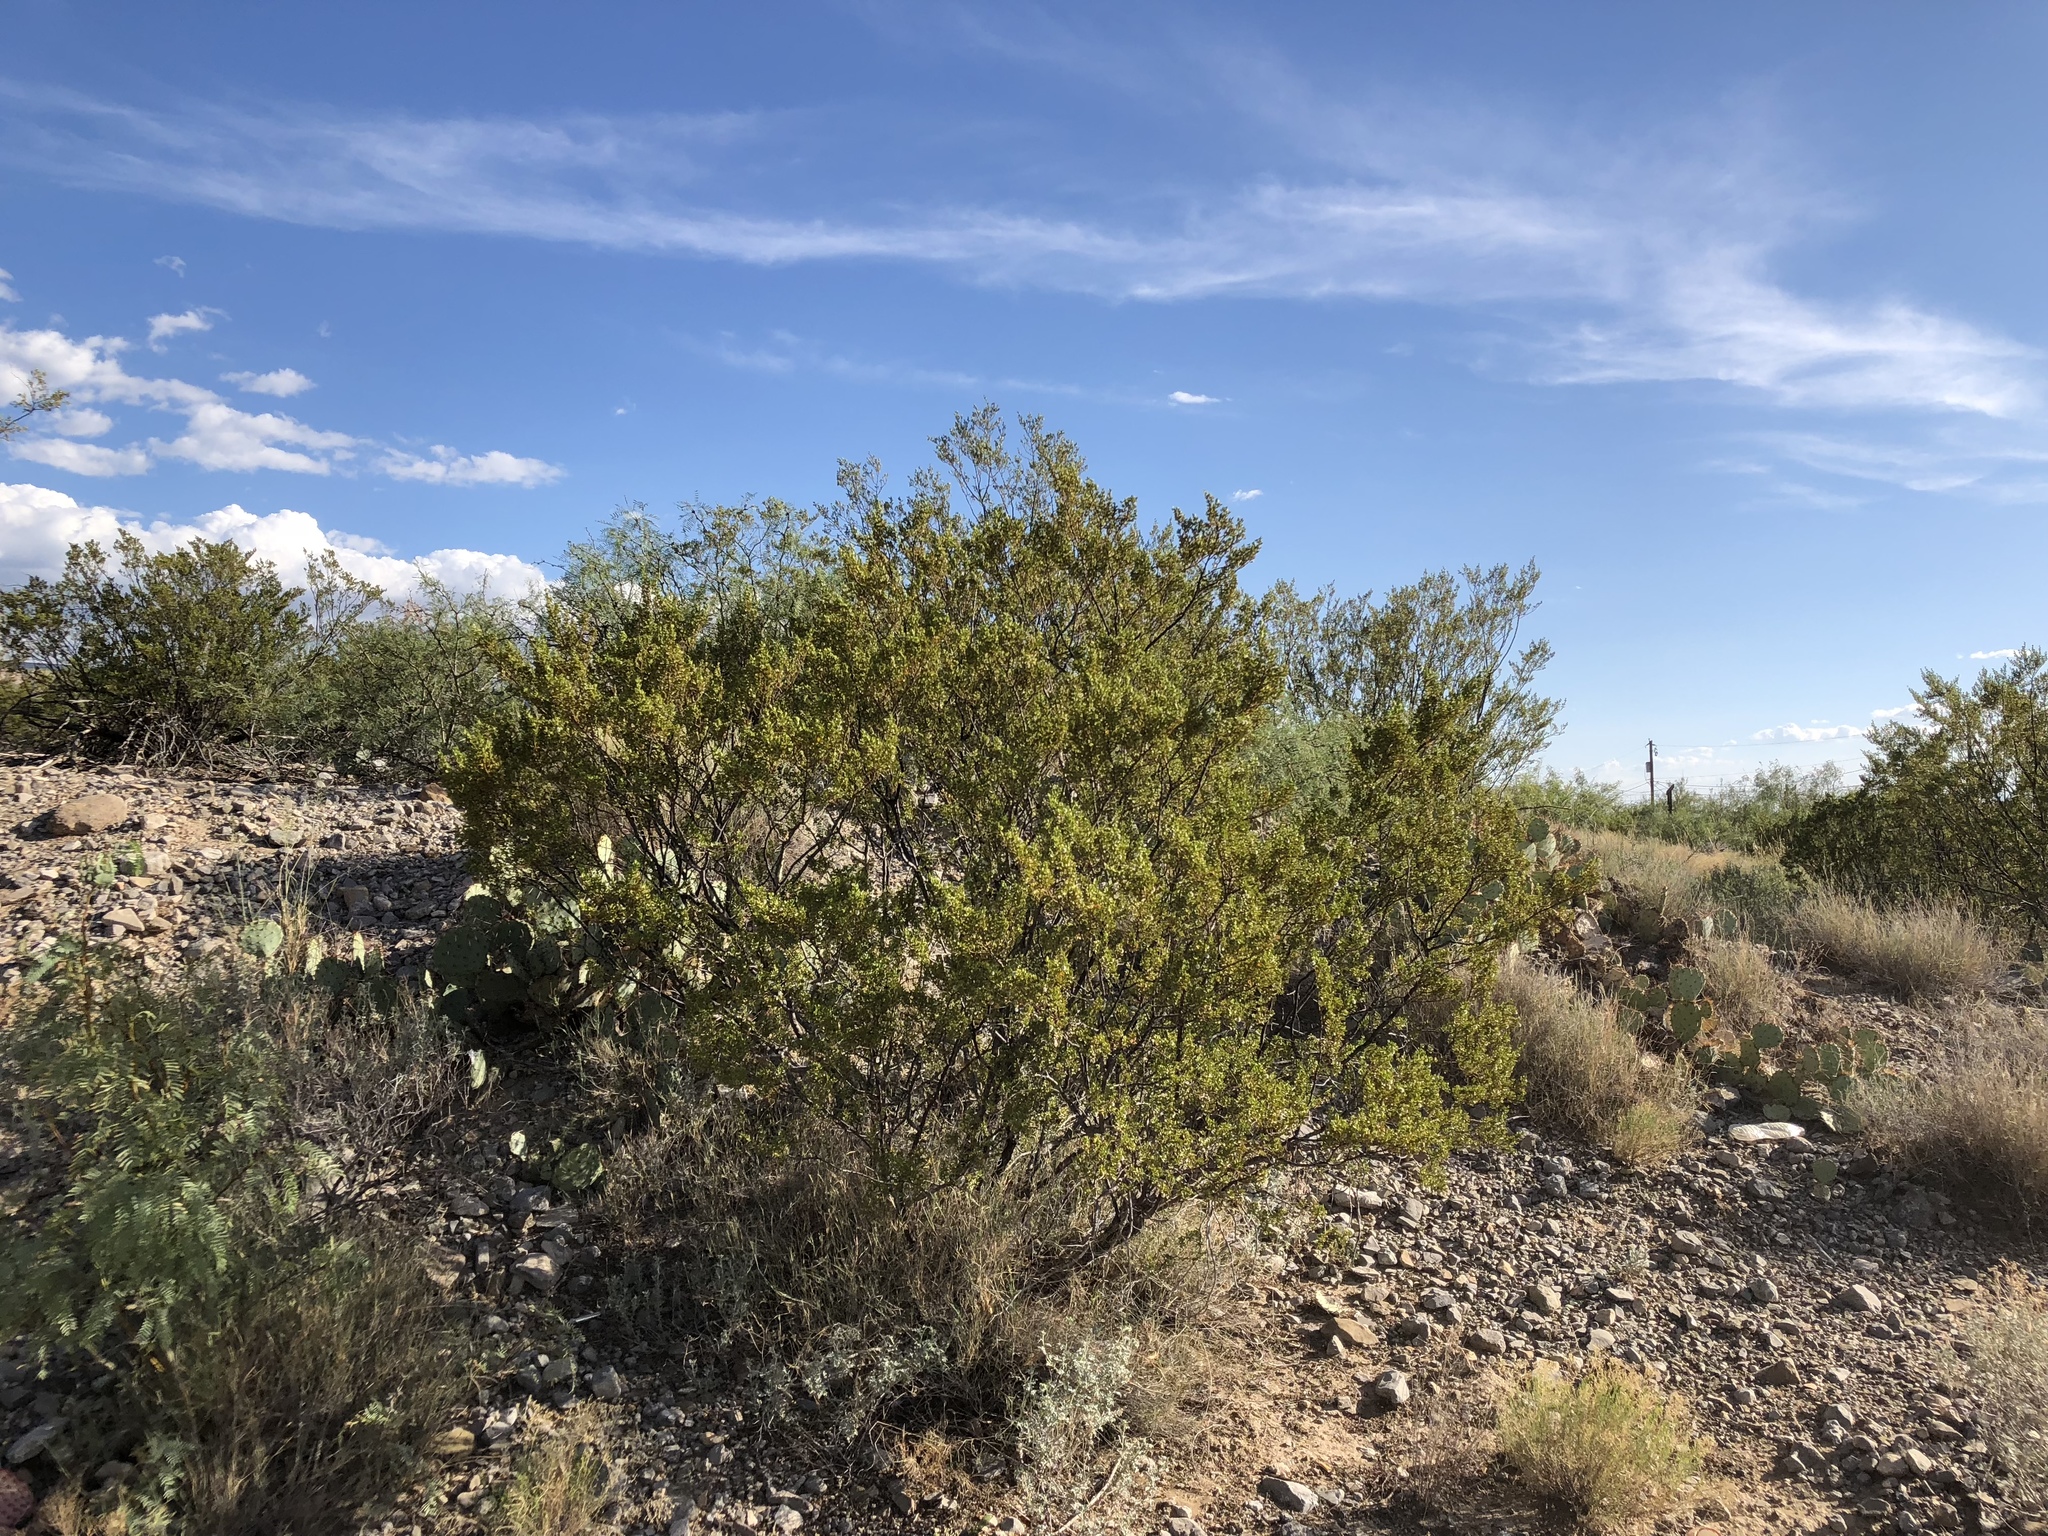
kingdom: Plantae
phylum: Tracheophyta
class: Magnoliopsida
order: Zygophyllales
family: Zygophyllaceae
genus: Larrea
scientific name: Larrea tridentata
